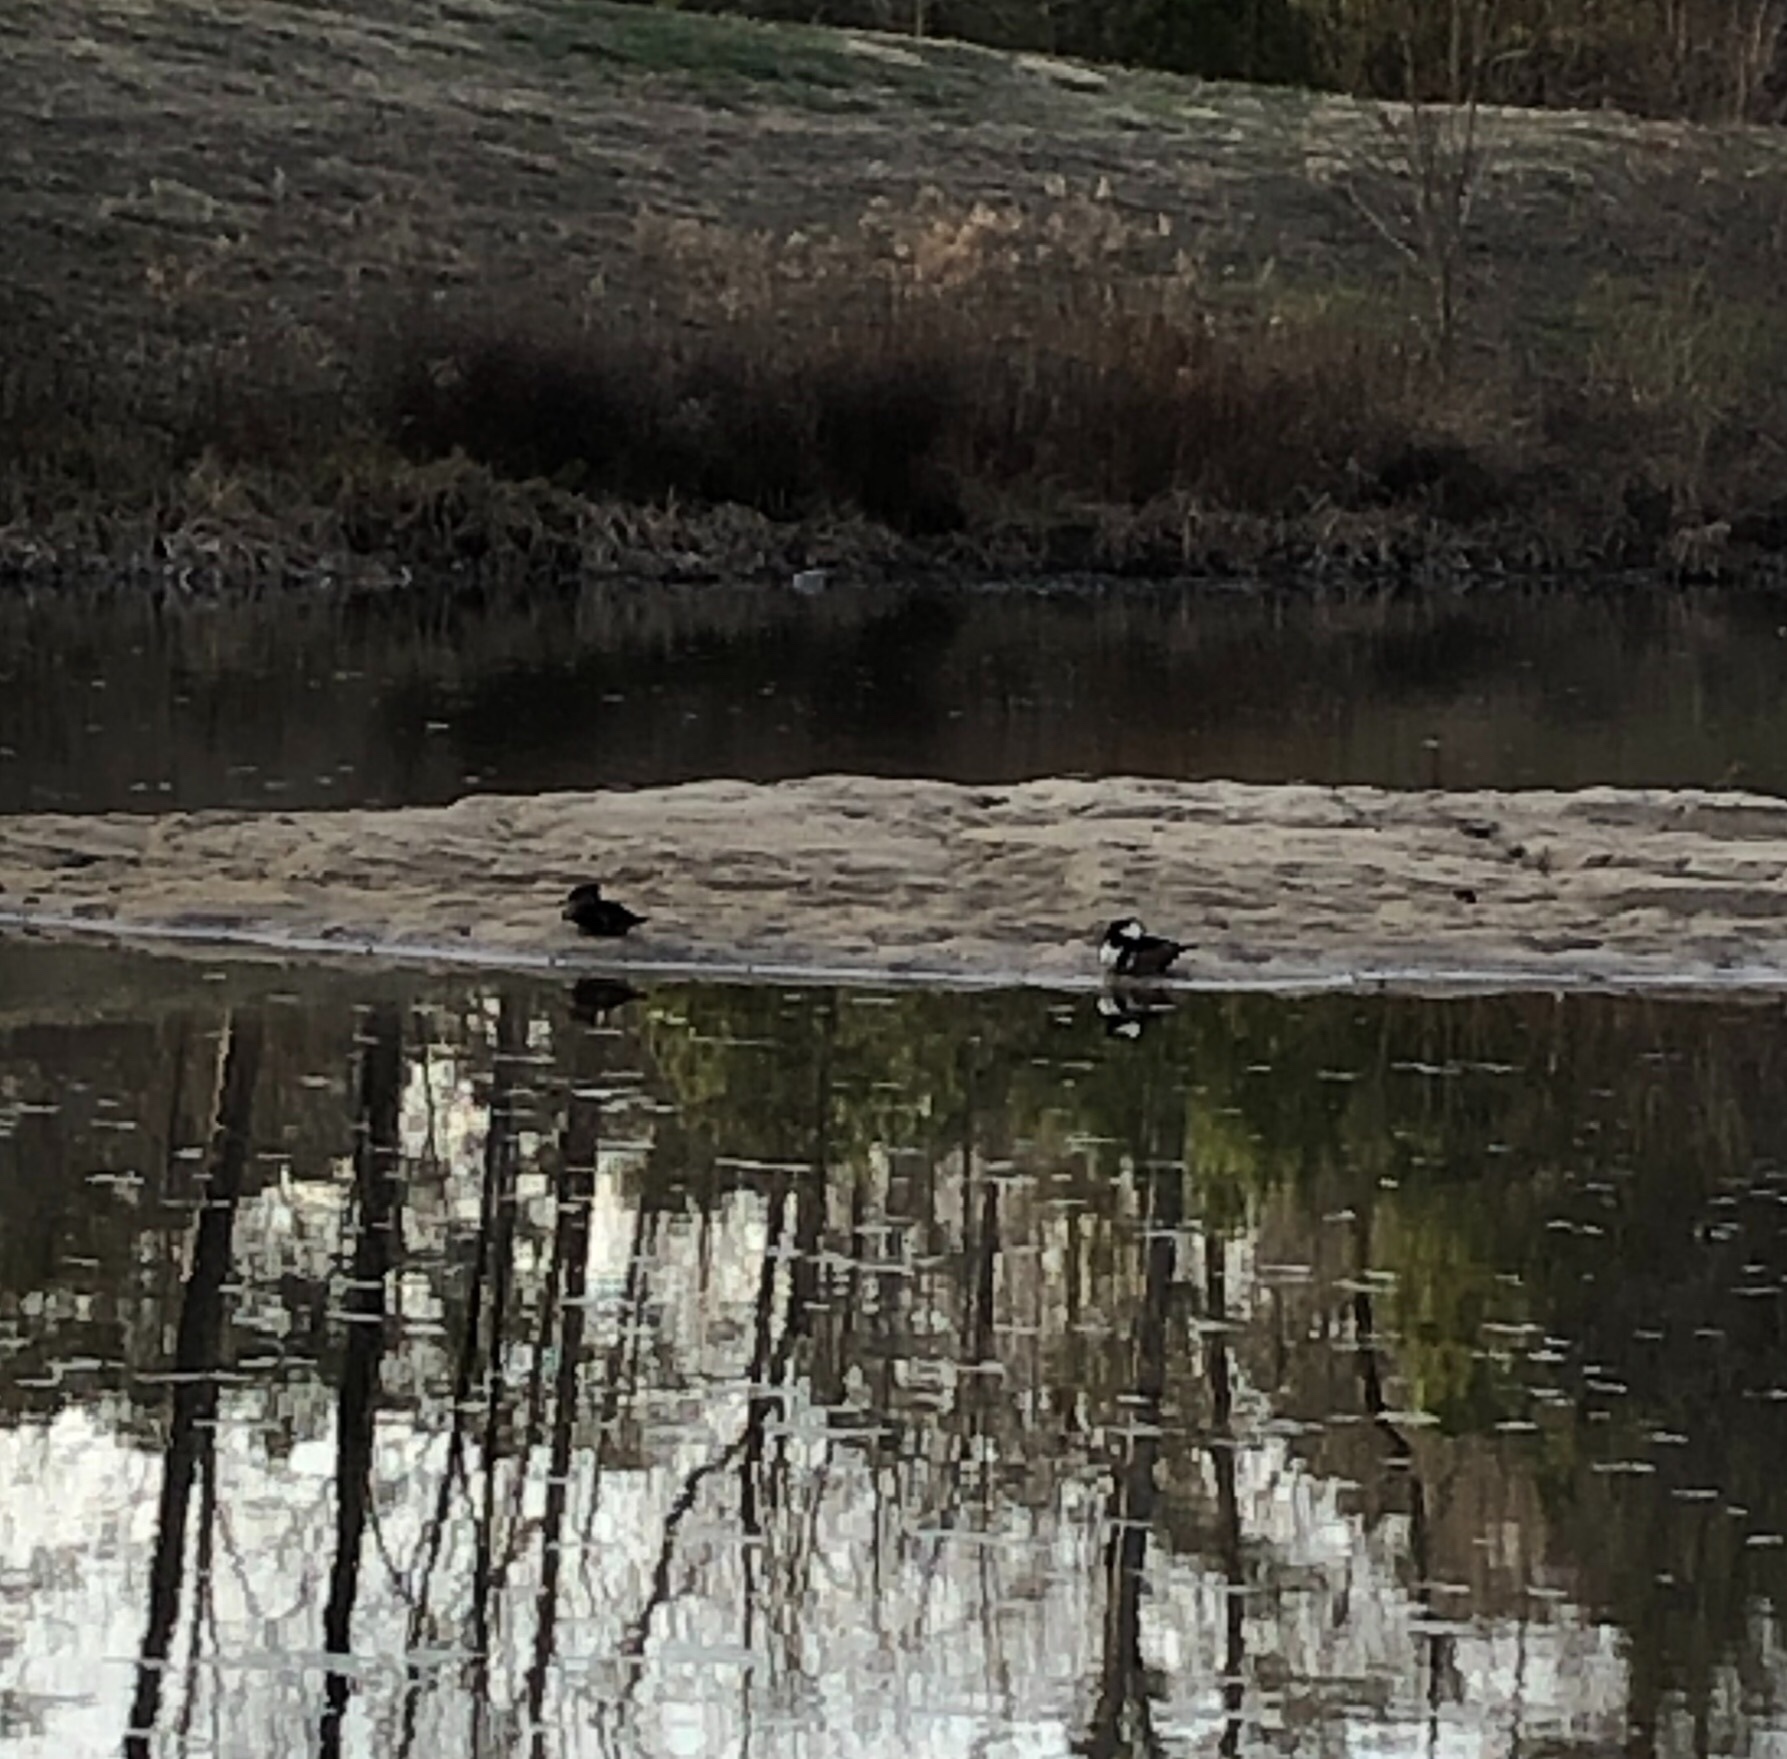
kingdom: Animalia
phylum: Chordata
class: Aves
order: Anseriformes
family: Anatidae
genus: Lophodytes
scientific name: Lophodytes cucullatus
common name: Hooded merganser
